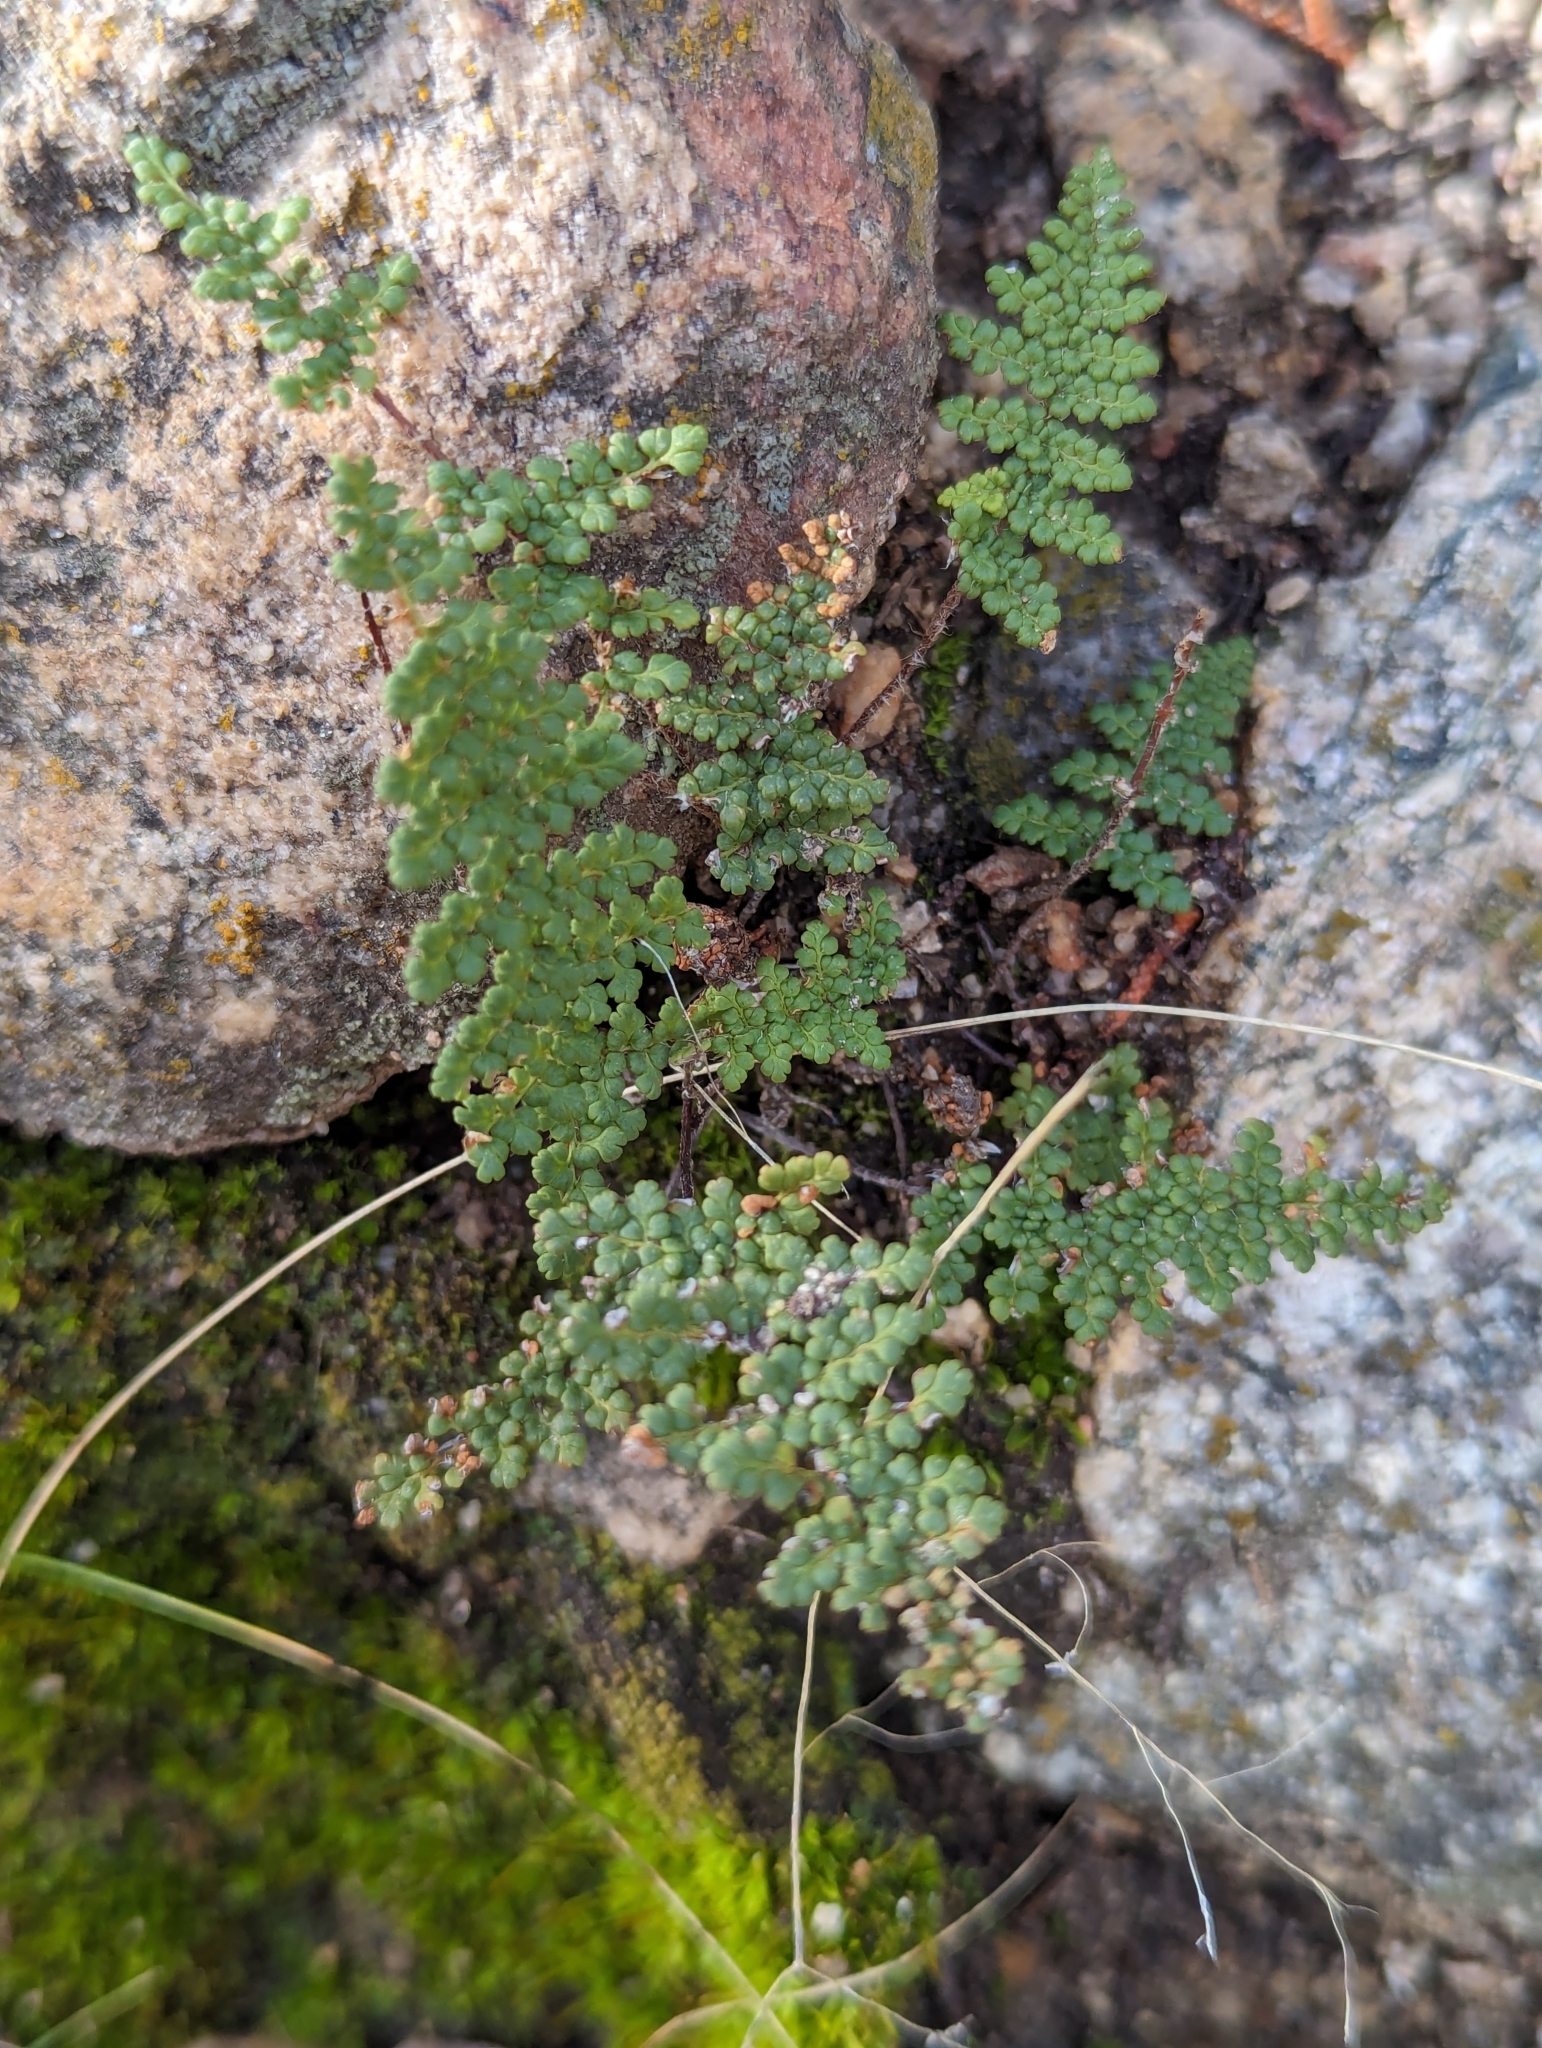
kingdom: Plantae
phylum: Tracheophyta
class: Polypodiopsida
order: Polypodiales
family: Pteridaceae
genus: Myriopteris
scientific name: Myriopteris fendleri
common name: Fendler's lip fern
